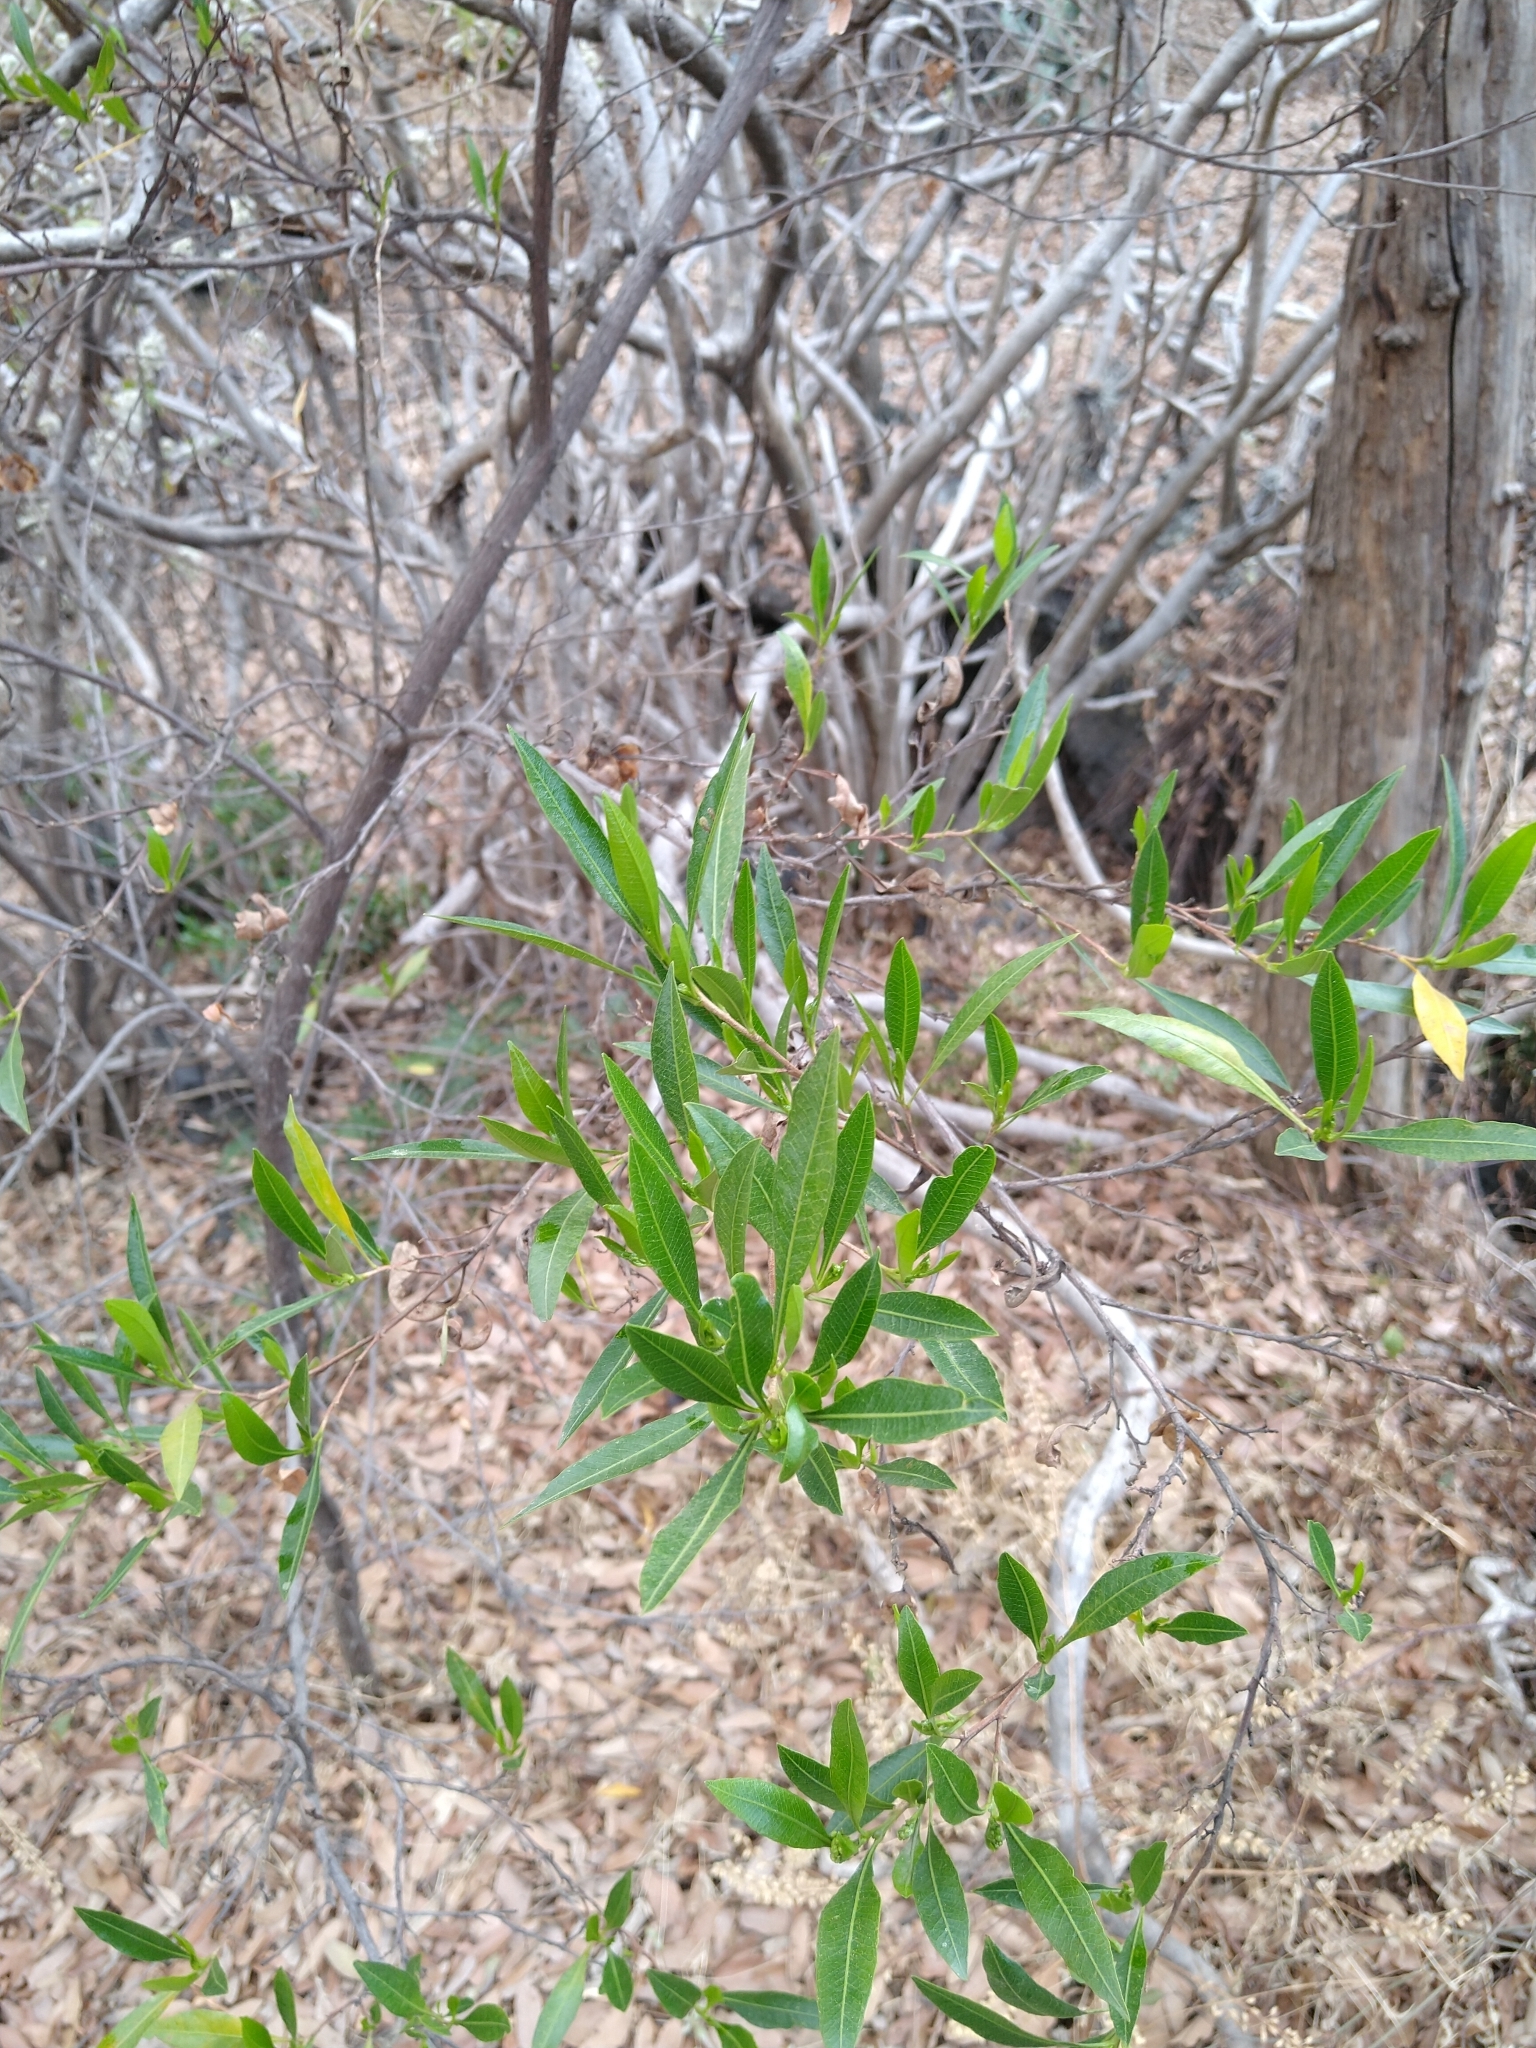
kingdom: Plantae
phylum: Tracheophyta
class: Magnoliopsida
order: Sapindales
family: Sapindaceae
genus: Dodonaea
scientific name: Dodonaea viscosa
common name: Hopbush
